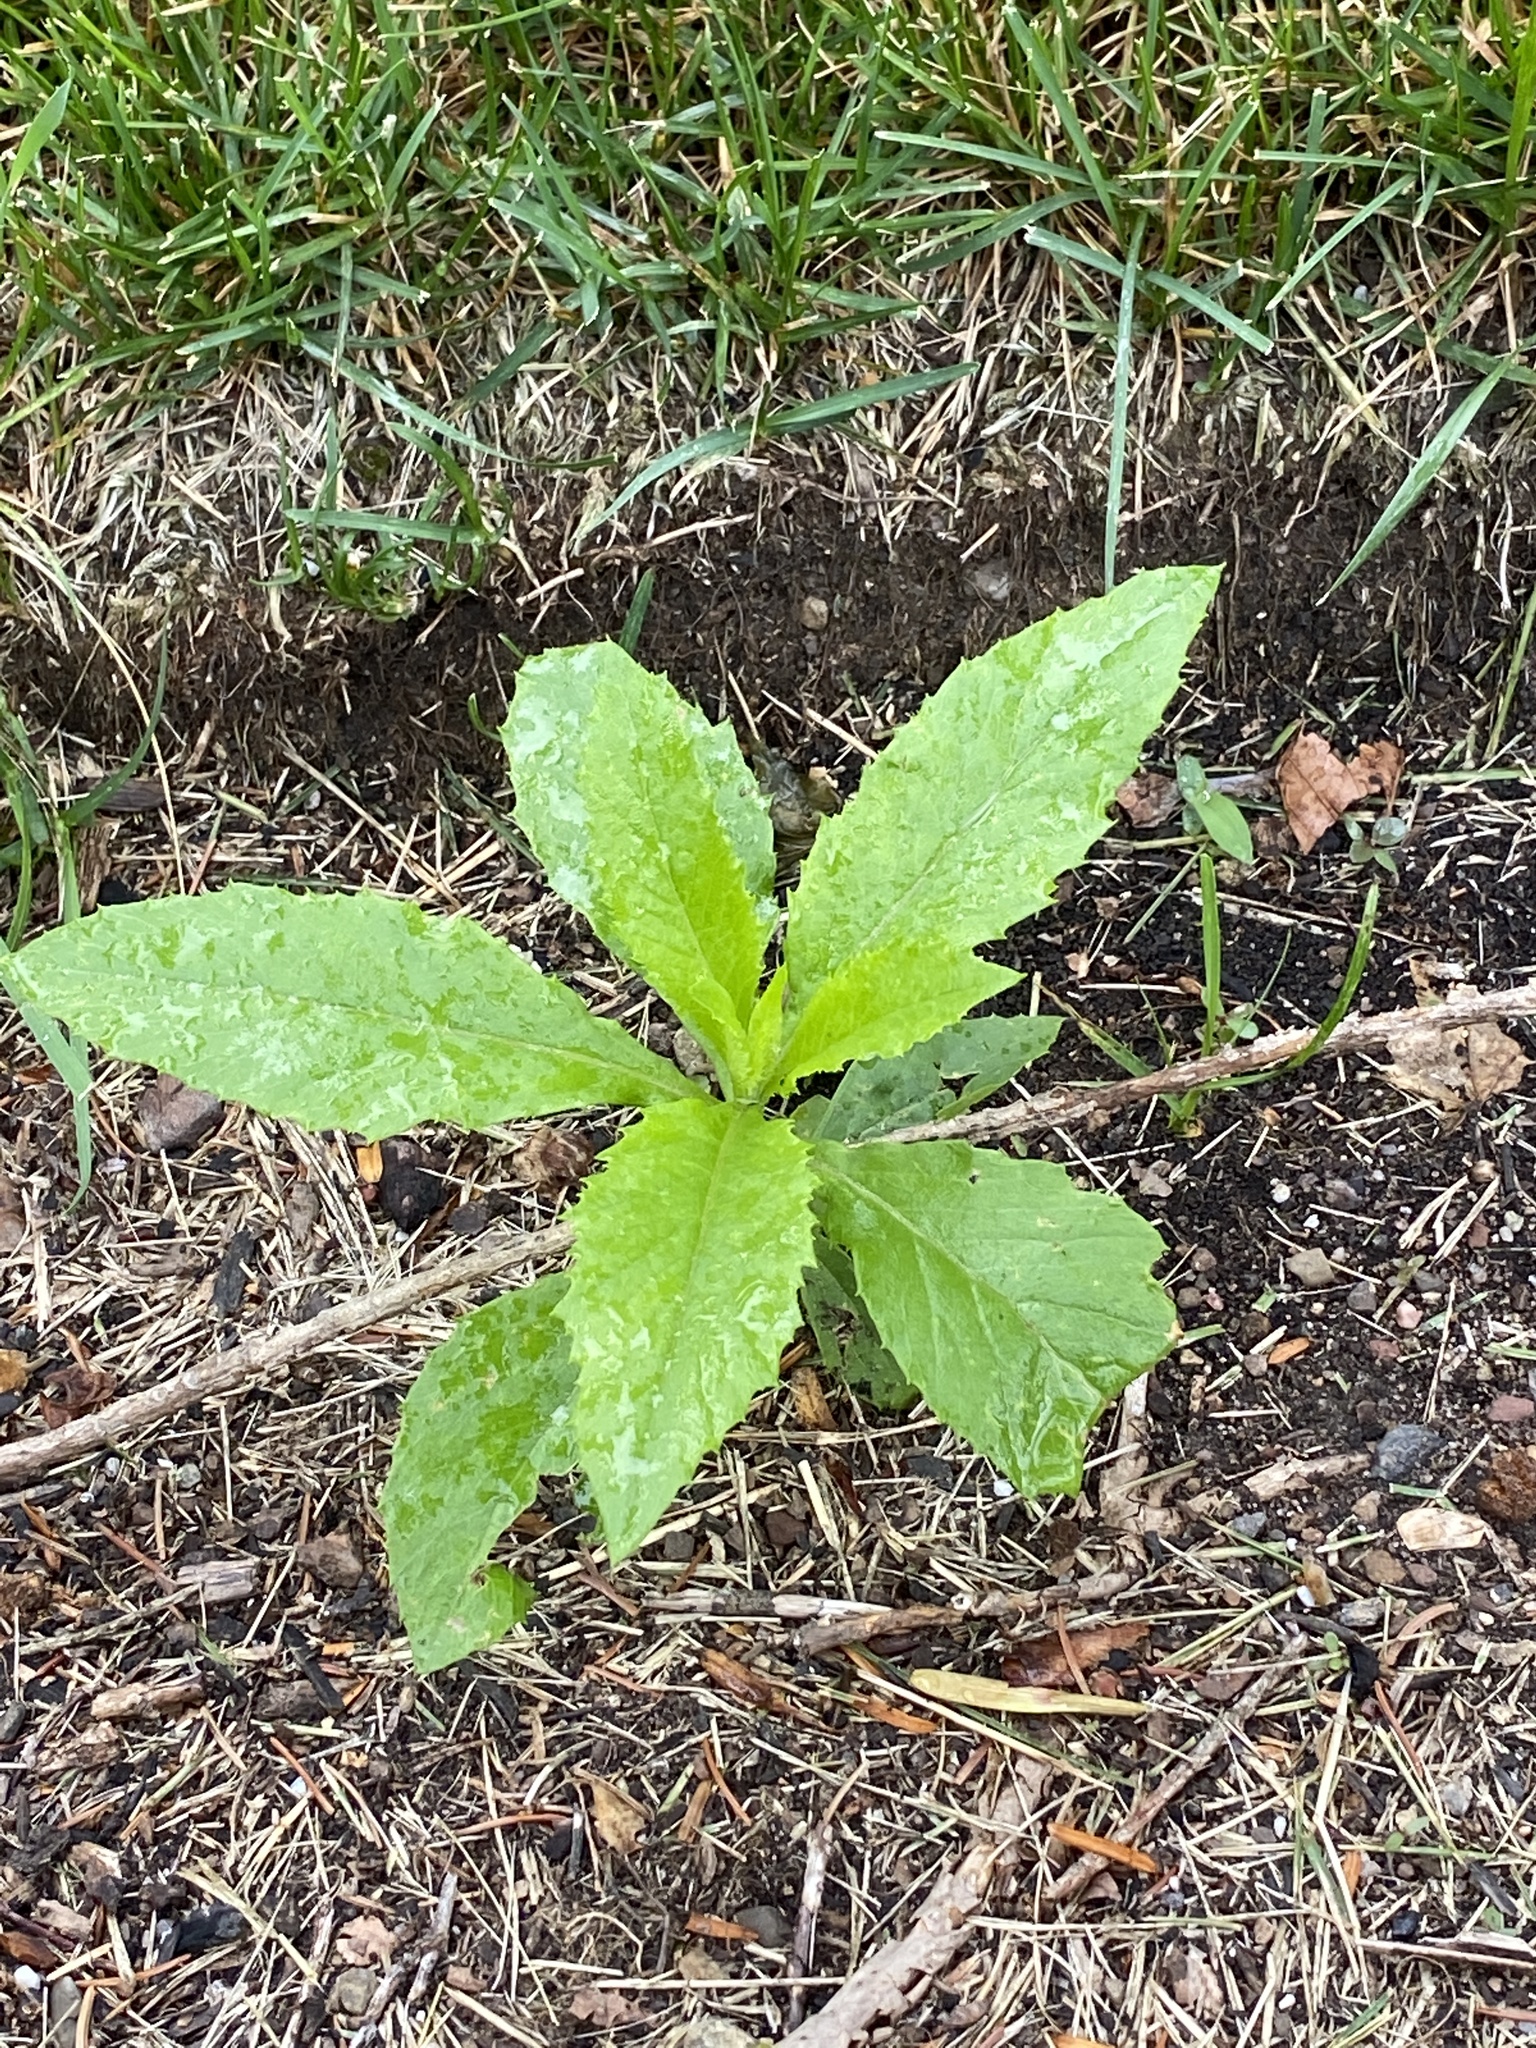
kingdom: Plantae
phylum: Tracheophyta
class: Magnoliopsida
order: Asterales
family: Asteraceae
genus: Erechtites
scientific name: Erechtites hieraciifolius
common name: American burnweed
